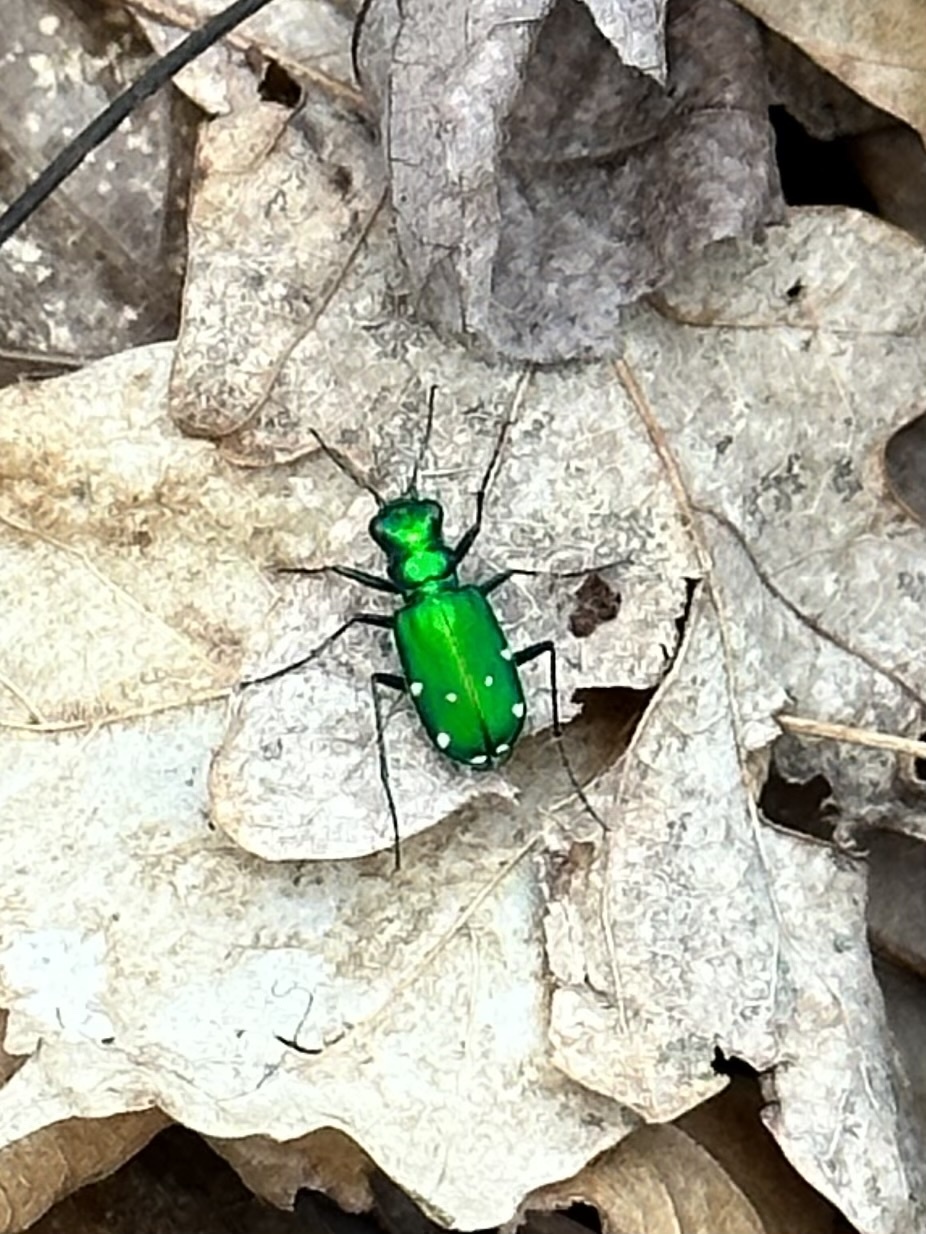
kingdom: Animalia
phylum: Arthropoda
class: Insecta
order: Coleoptera
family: Carabidae
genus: Cicindela
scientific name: Cicindela sexguttata
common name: Six-spotted tiger beetle
